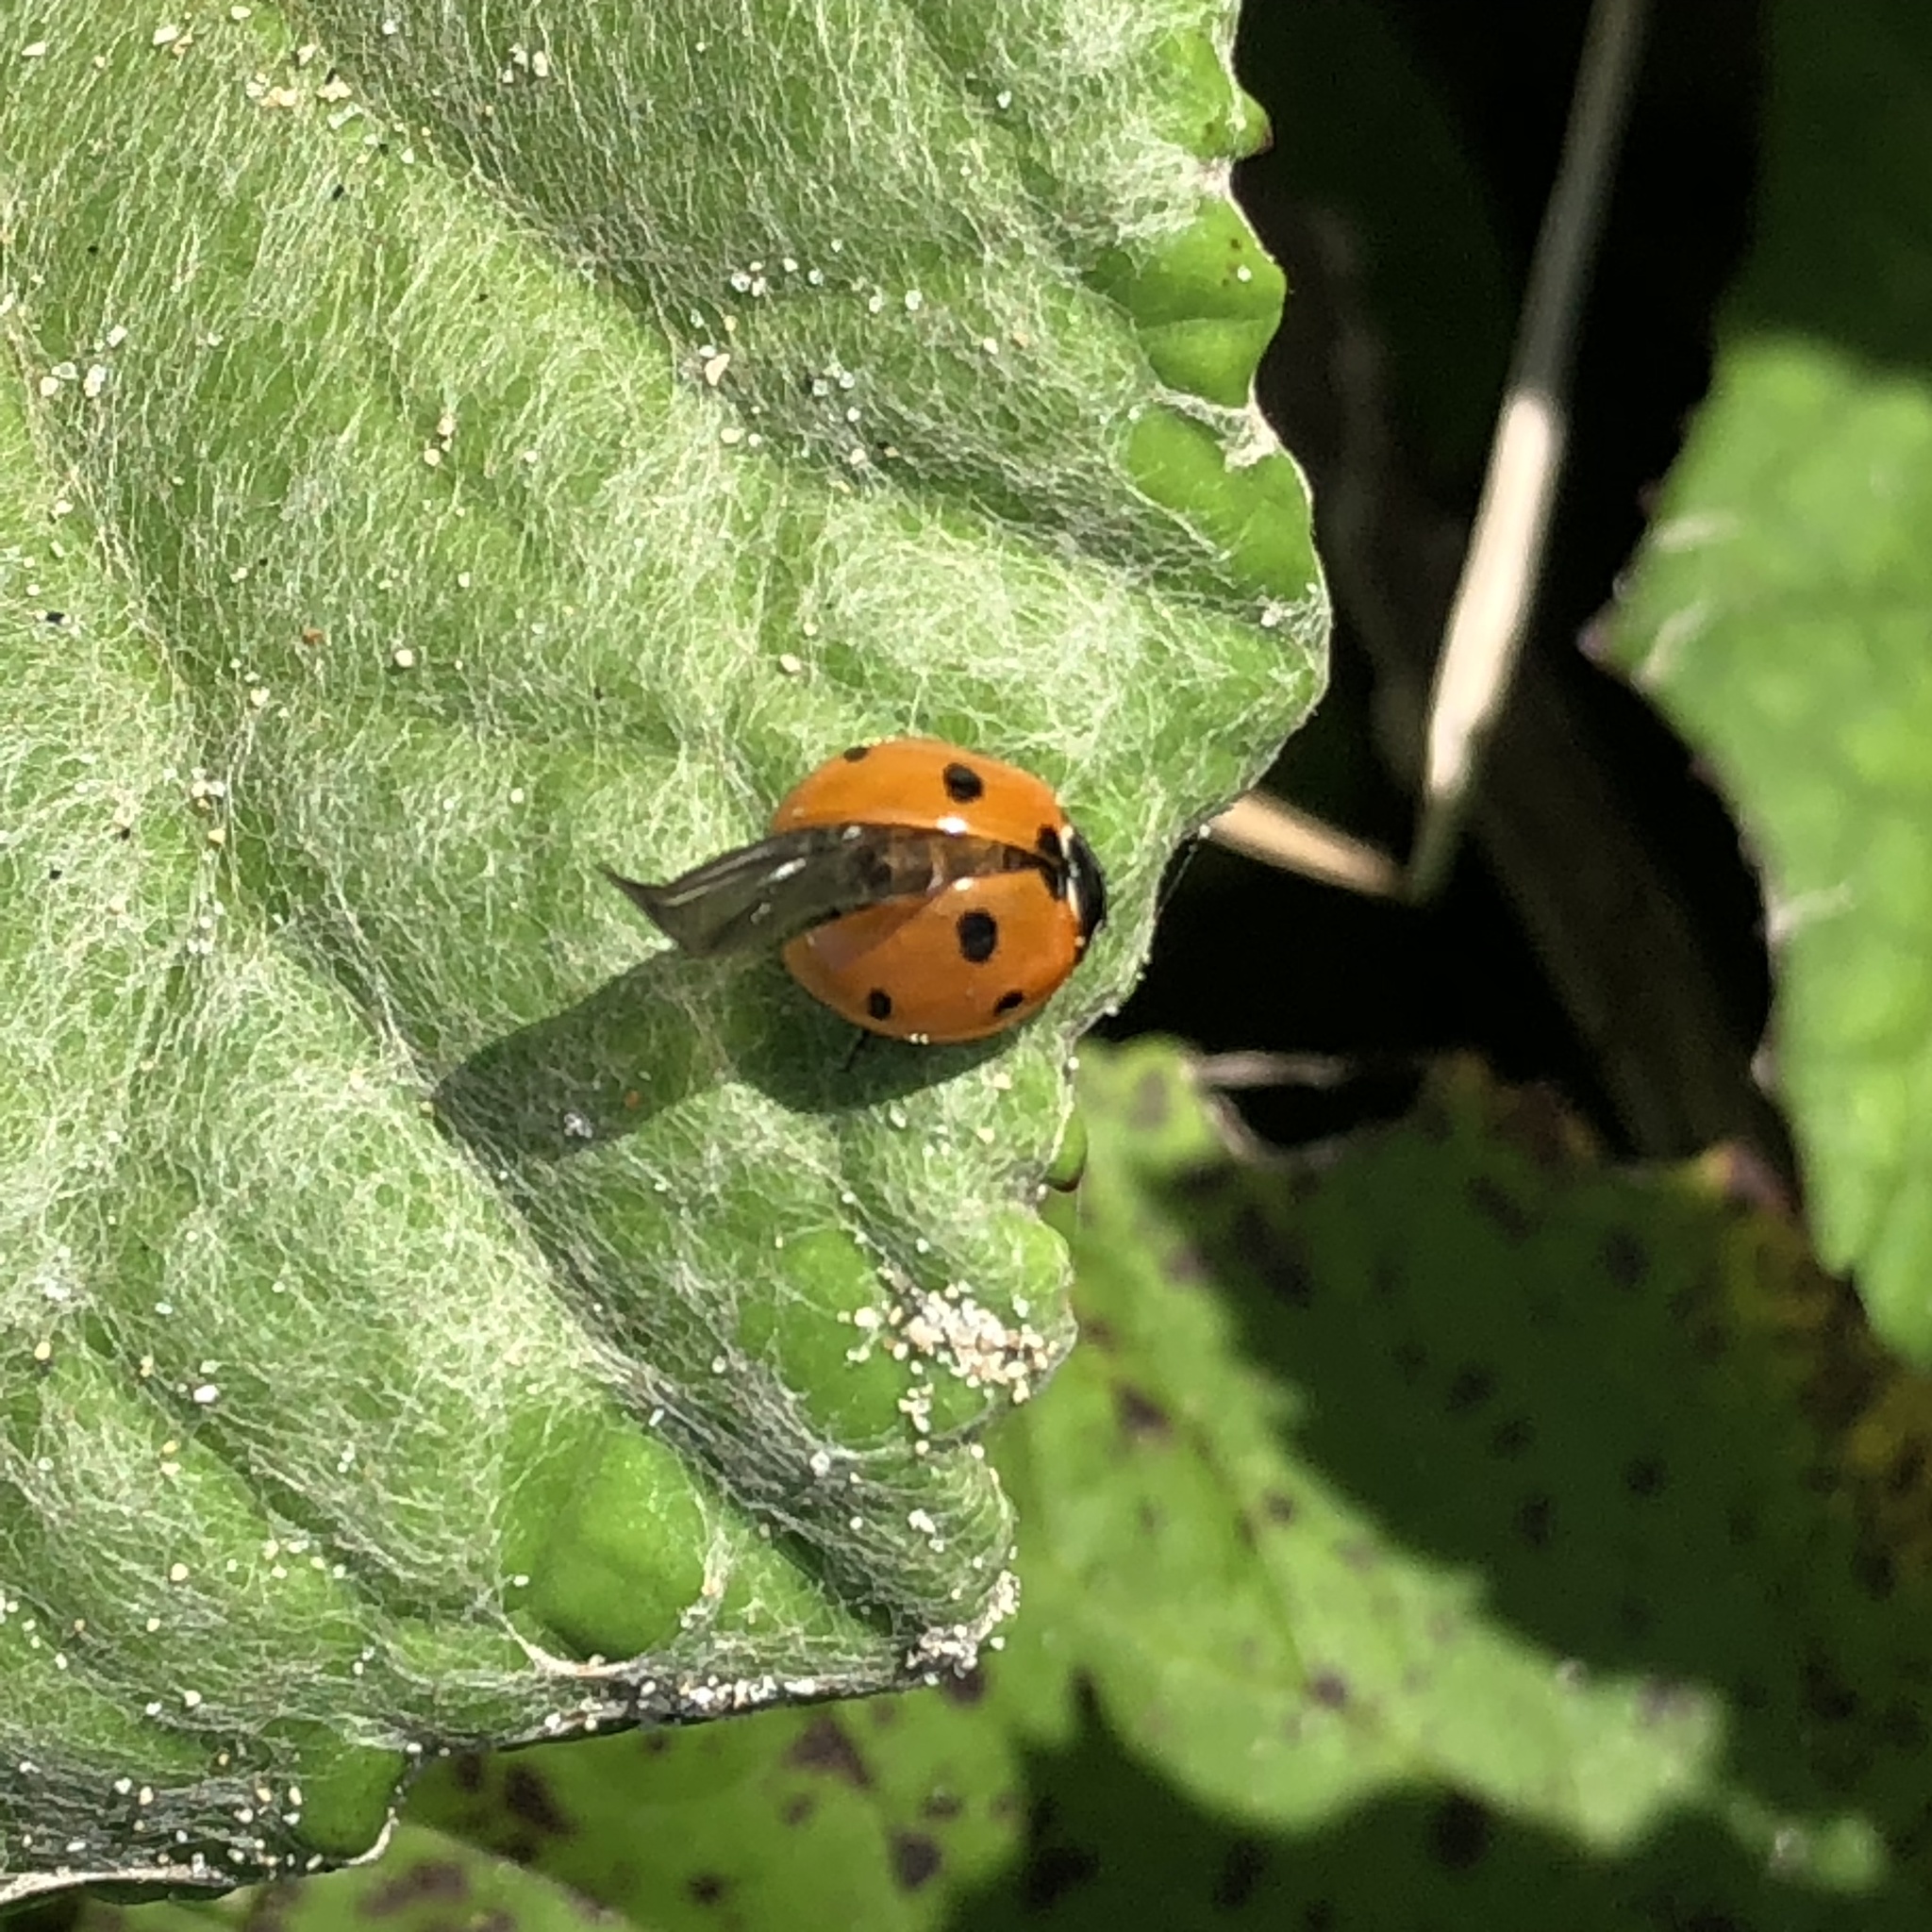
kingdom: Animalia
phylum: Arthropoda
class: Insecta
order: Coleoptera
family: Coccinellidae
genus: Coccinella
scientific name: Coccinella septempunctata
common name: Sevenspotted lady beetle
